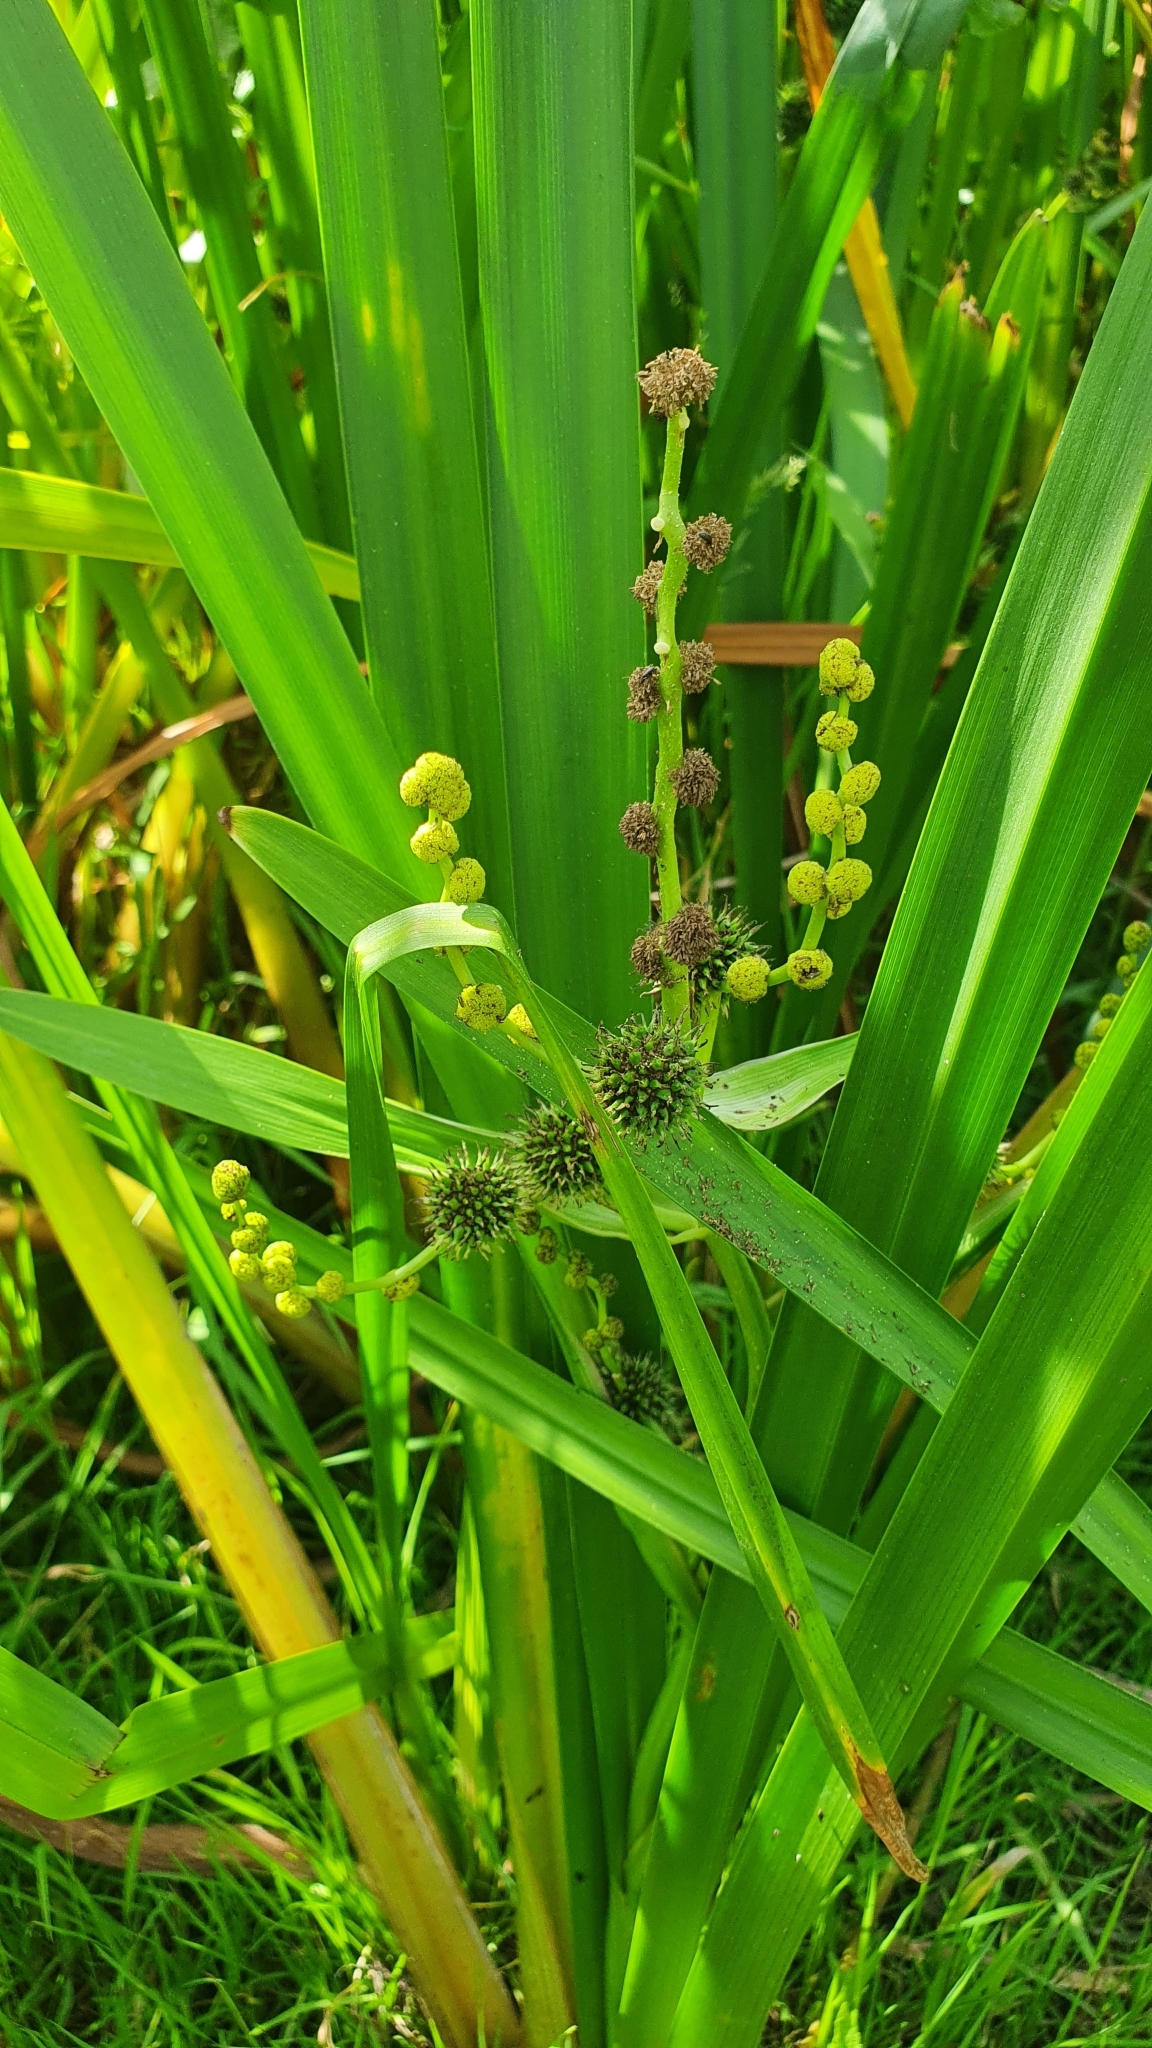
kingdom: Plantae
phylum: Tracheophyta
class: Liliopsida
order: Poales
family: Typhaceae
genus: Sparganium
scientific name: Sparganium erectum
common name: Branched bur-reed
